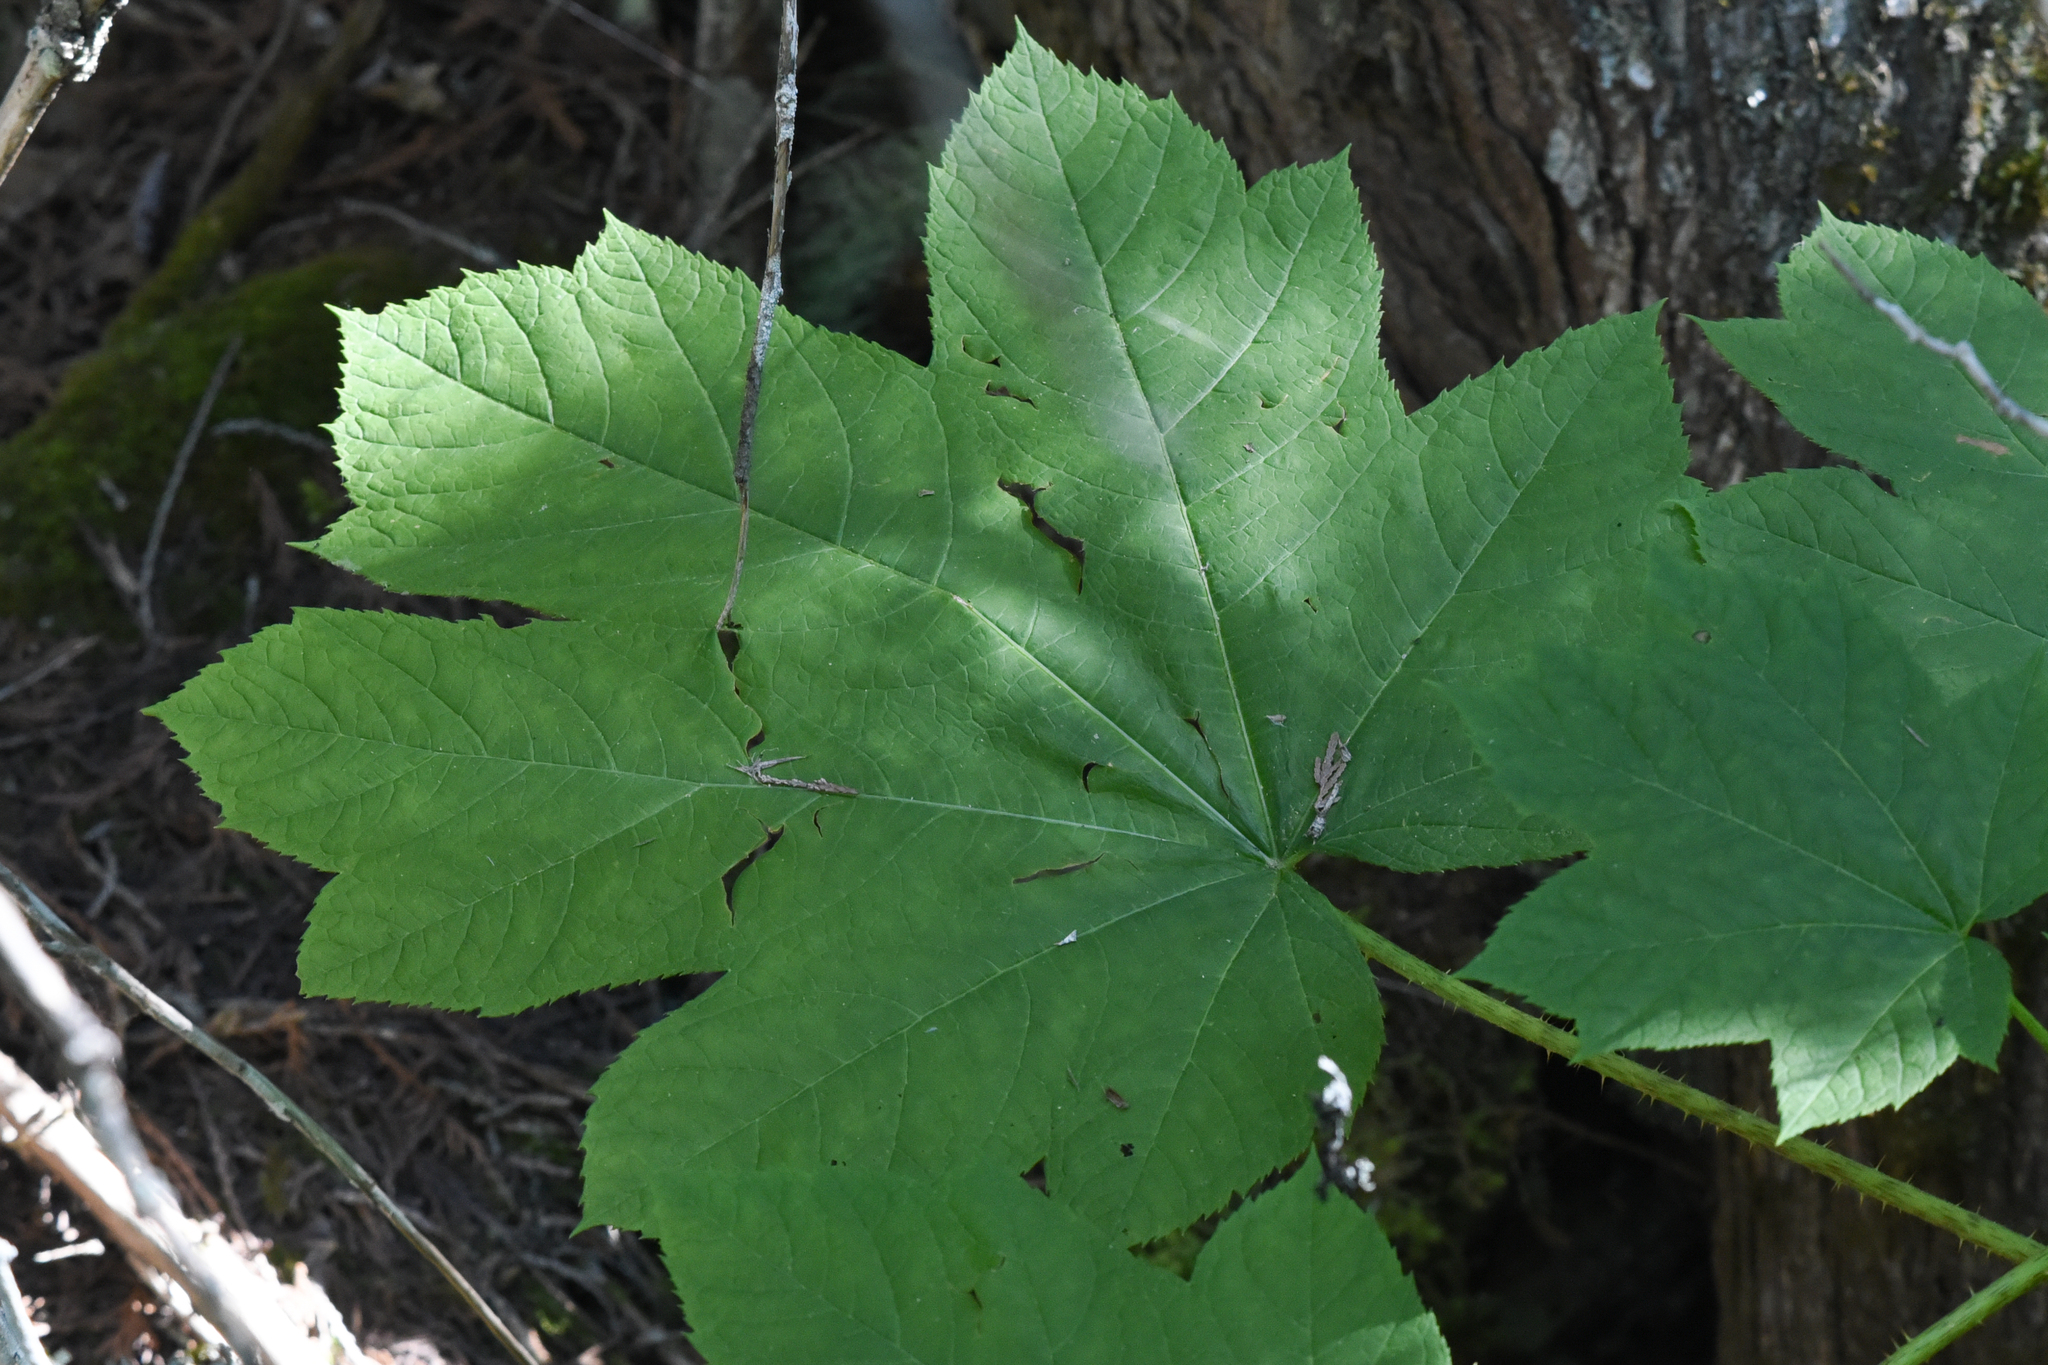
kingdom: Plantae
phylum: Tracheophyta
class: Magnoliopsida
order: Apiales
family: Araliaceae
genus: Oplopanax
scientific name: Oplopanax horridus
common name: Devil's walking-stick
